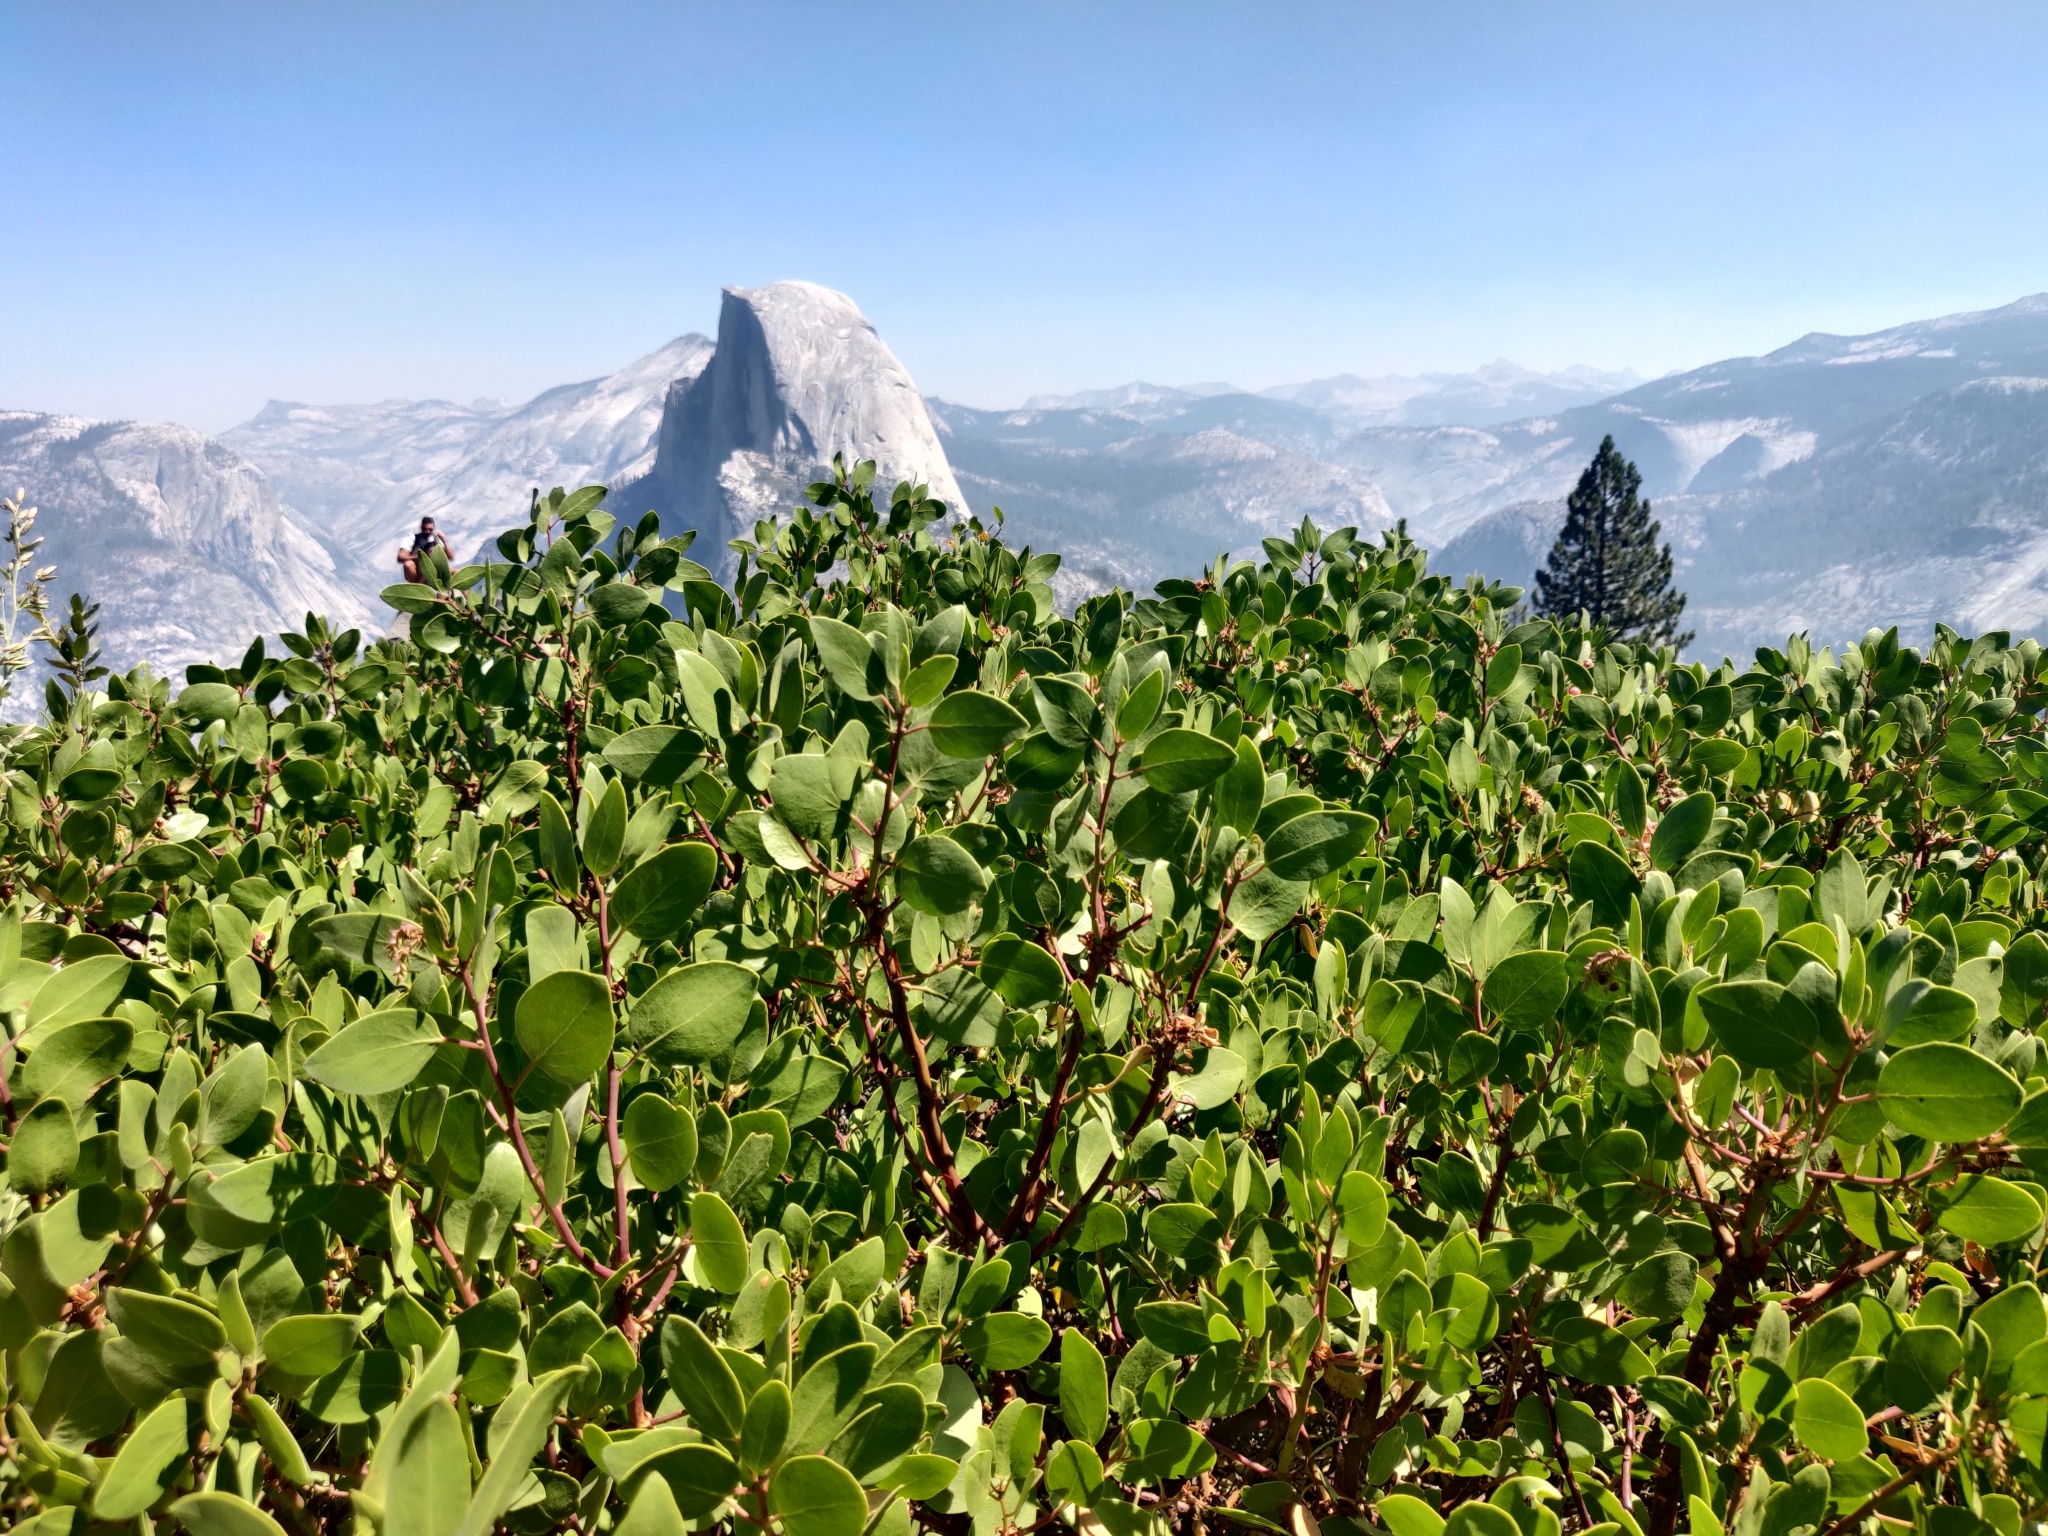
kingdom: Plantae
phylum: Tracheophyta
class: Magnoliopsida
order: Ericales
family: Ericaceae
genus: Arctostaphylos
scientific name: Arctostaphylos patula
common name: Green-leaf manzanita
